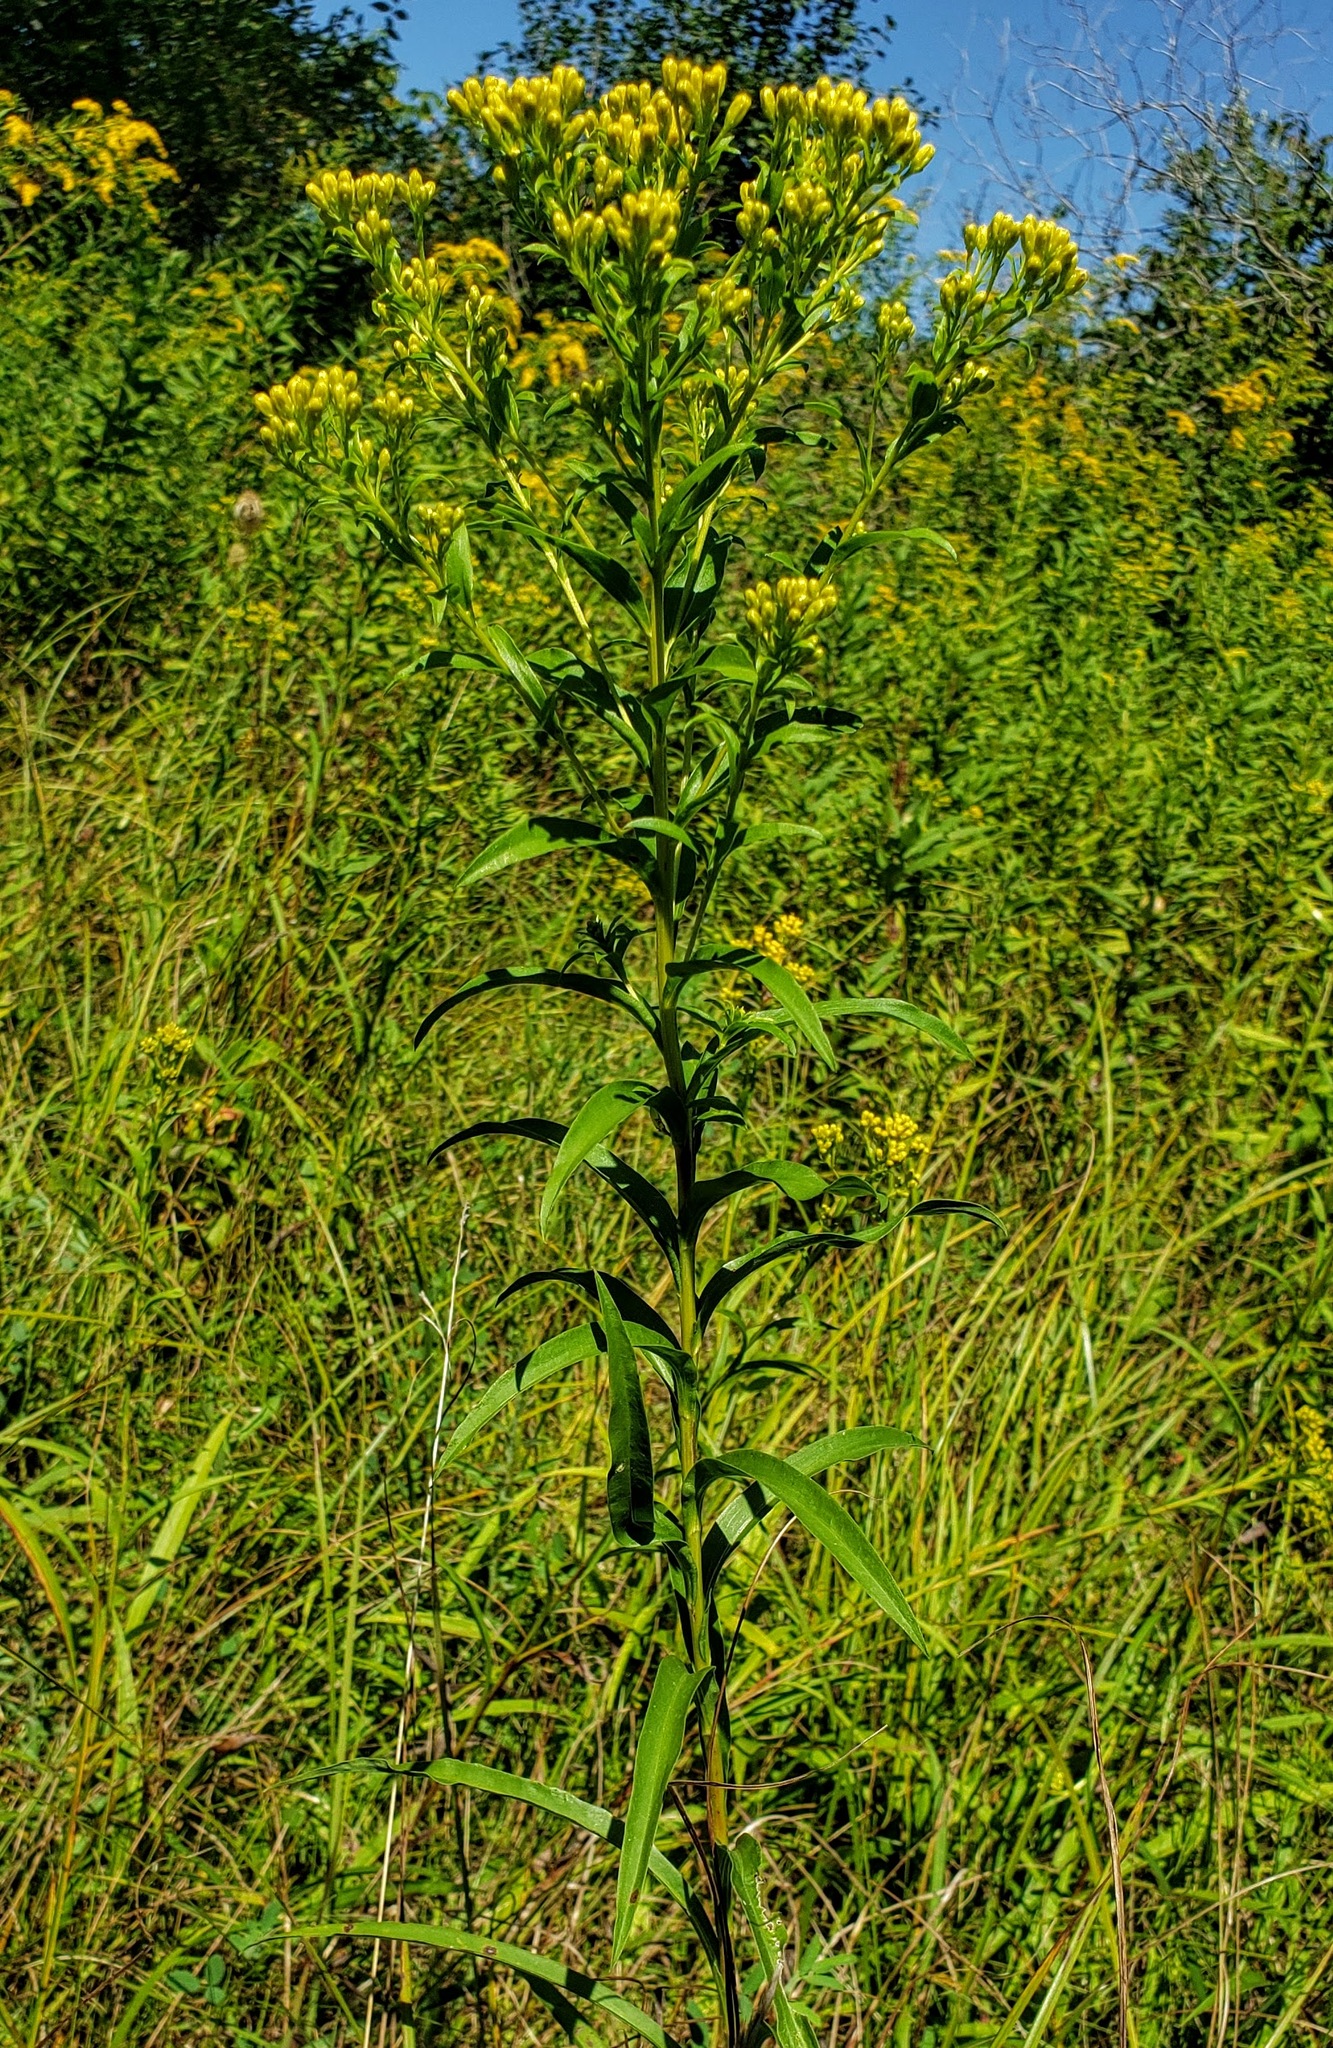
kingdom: Plantae
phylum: Tracheophyta
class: Magnoliopsida
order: Asterales
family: Asteraceae
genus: Solidago
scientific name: Solidago riddellii
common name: Riddell's goldenrod
